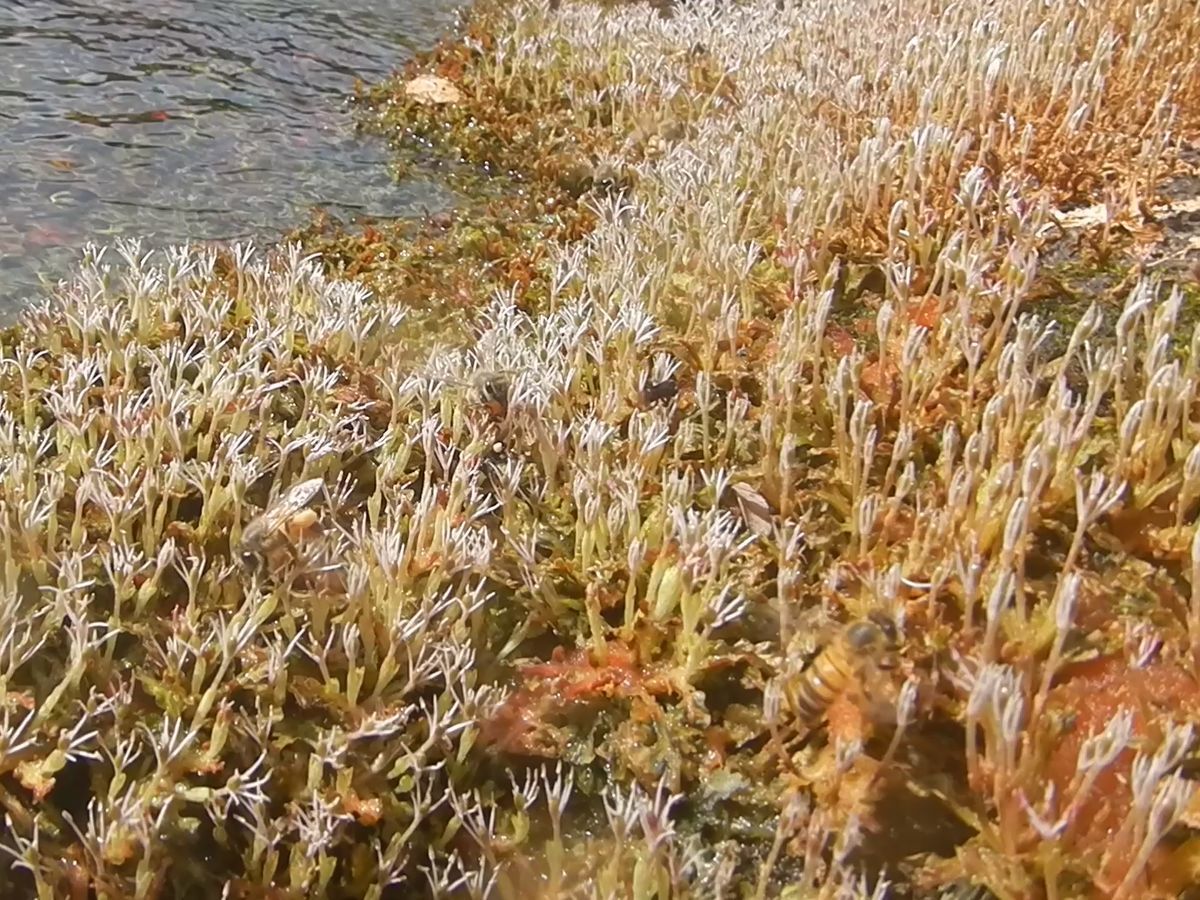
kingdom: Plantae
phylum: Tracheophyta
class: Magnoliopsida
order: Malpighiales
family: Podostemaceae
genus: Apinagia
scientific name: Apinagia richardiana
